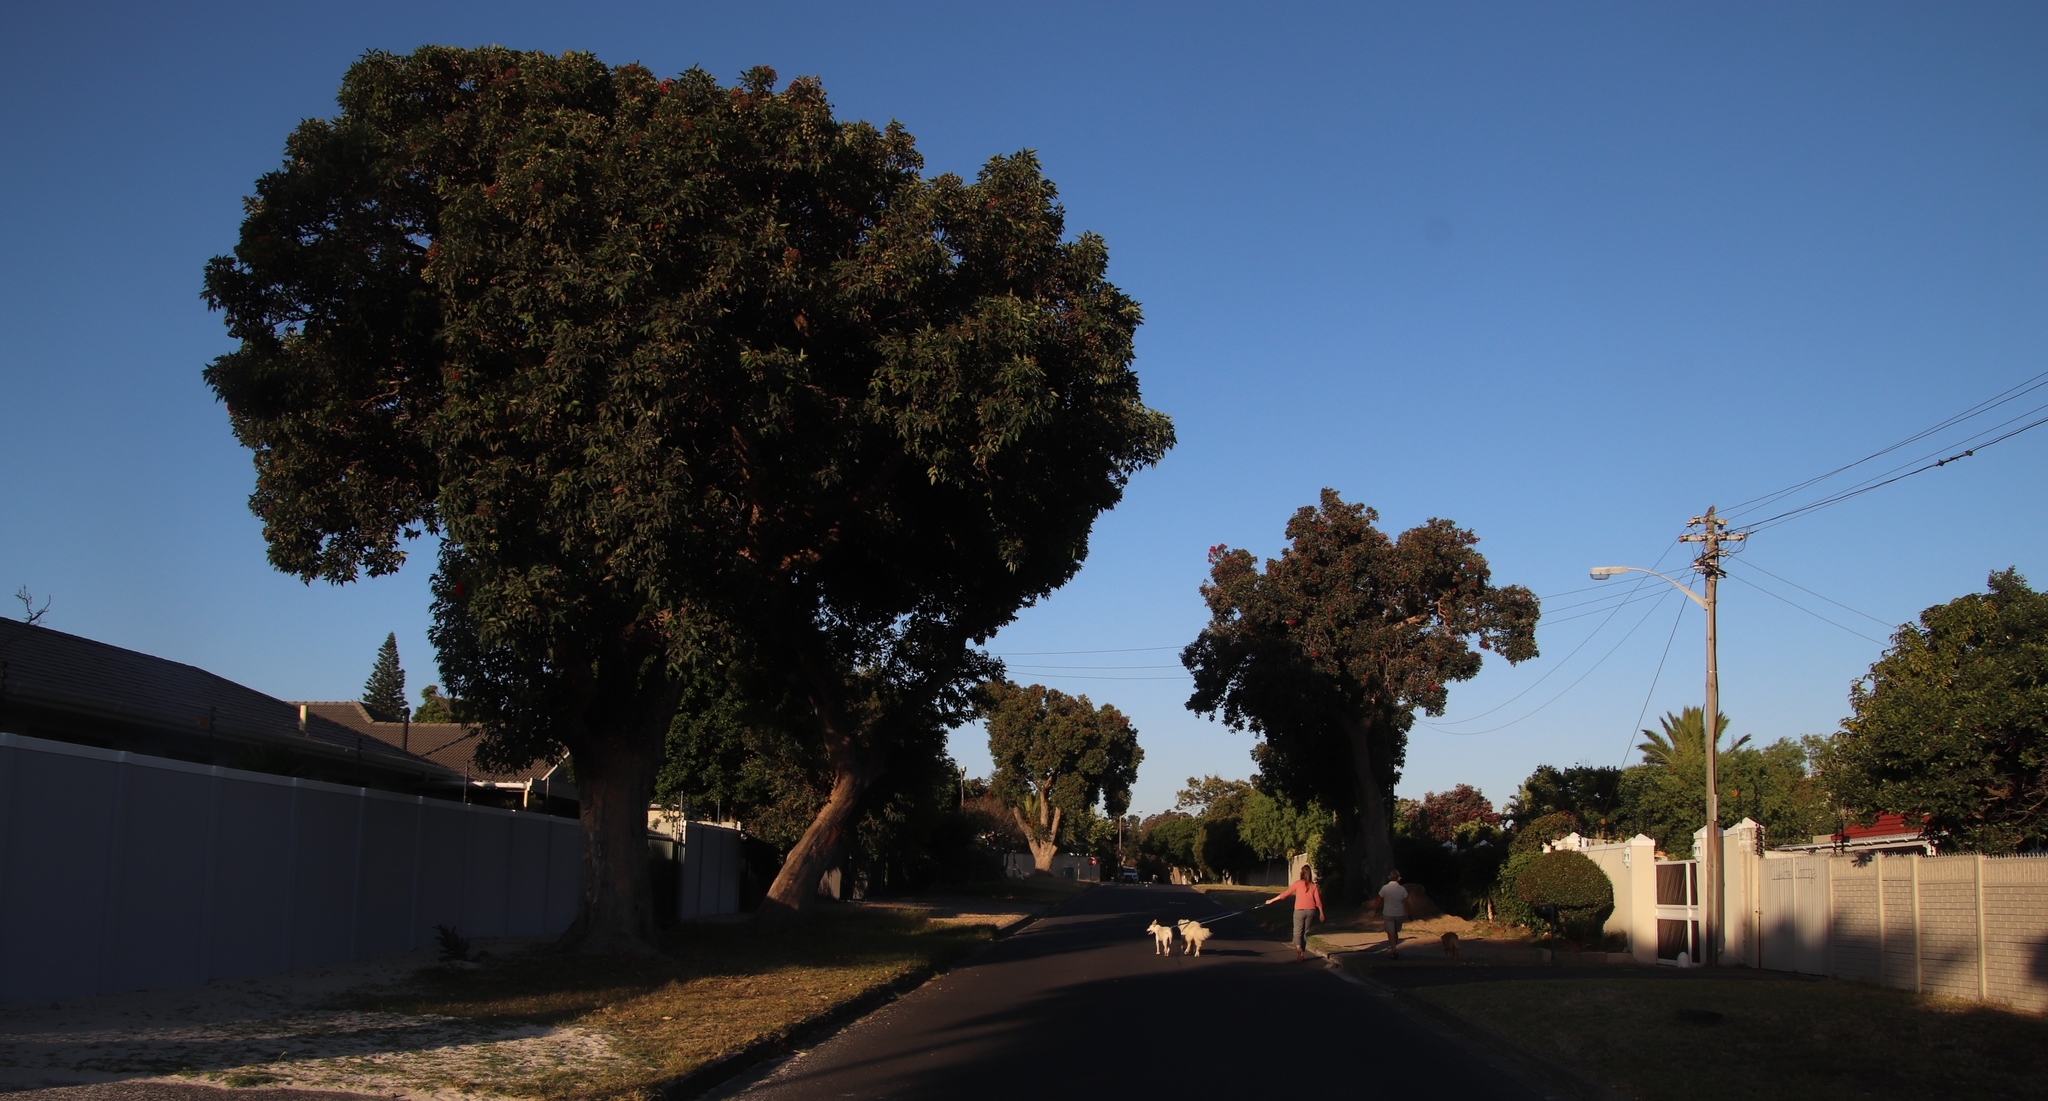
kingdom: Plantae
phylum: Tracheophyta
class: Magnoliopsida
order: Myrtales
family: Myrtaceae
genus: Corymbia
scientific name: Corymbia ficifolia
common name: Redflower gum
